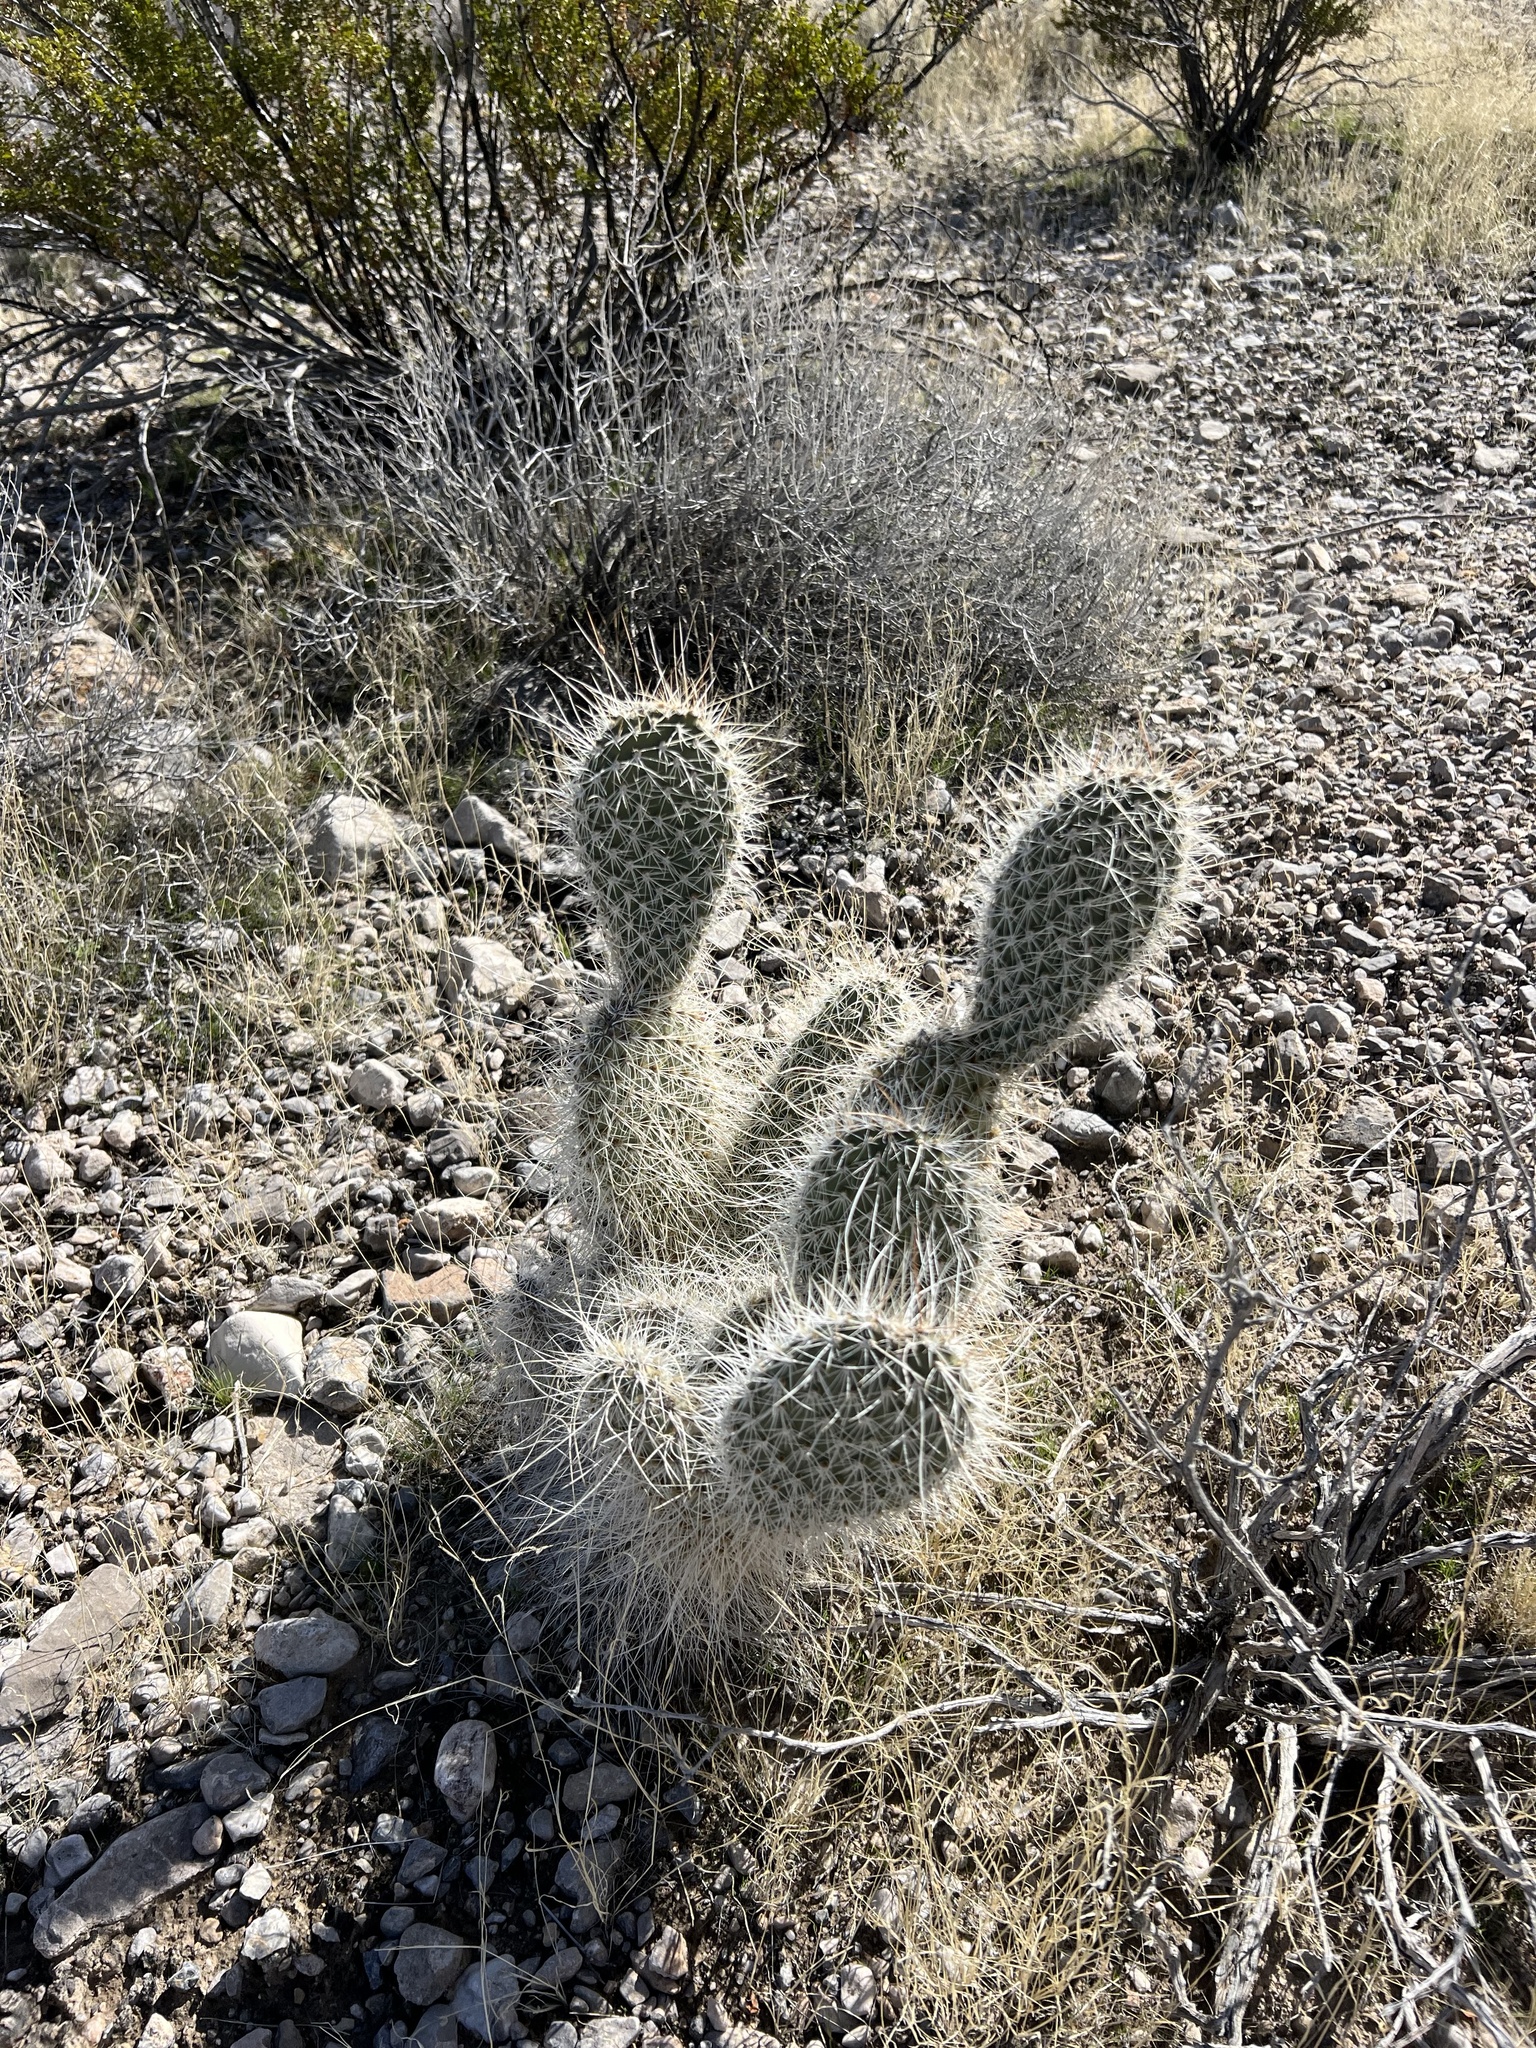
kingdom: Plantae
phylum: Tracheophyta
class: Magnoliopsida
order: Caryophyllales
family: Cactaceae
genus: Opuntia
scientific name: Opuntia polyacantha
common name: Plains prickly-pear
